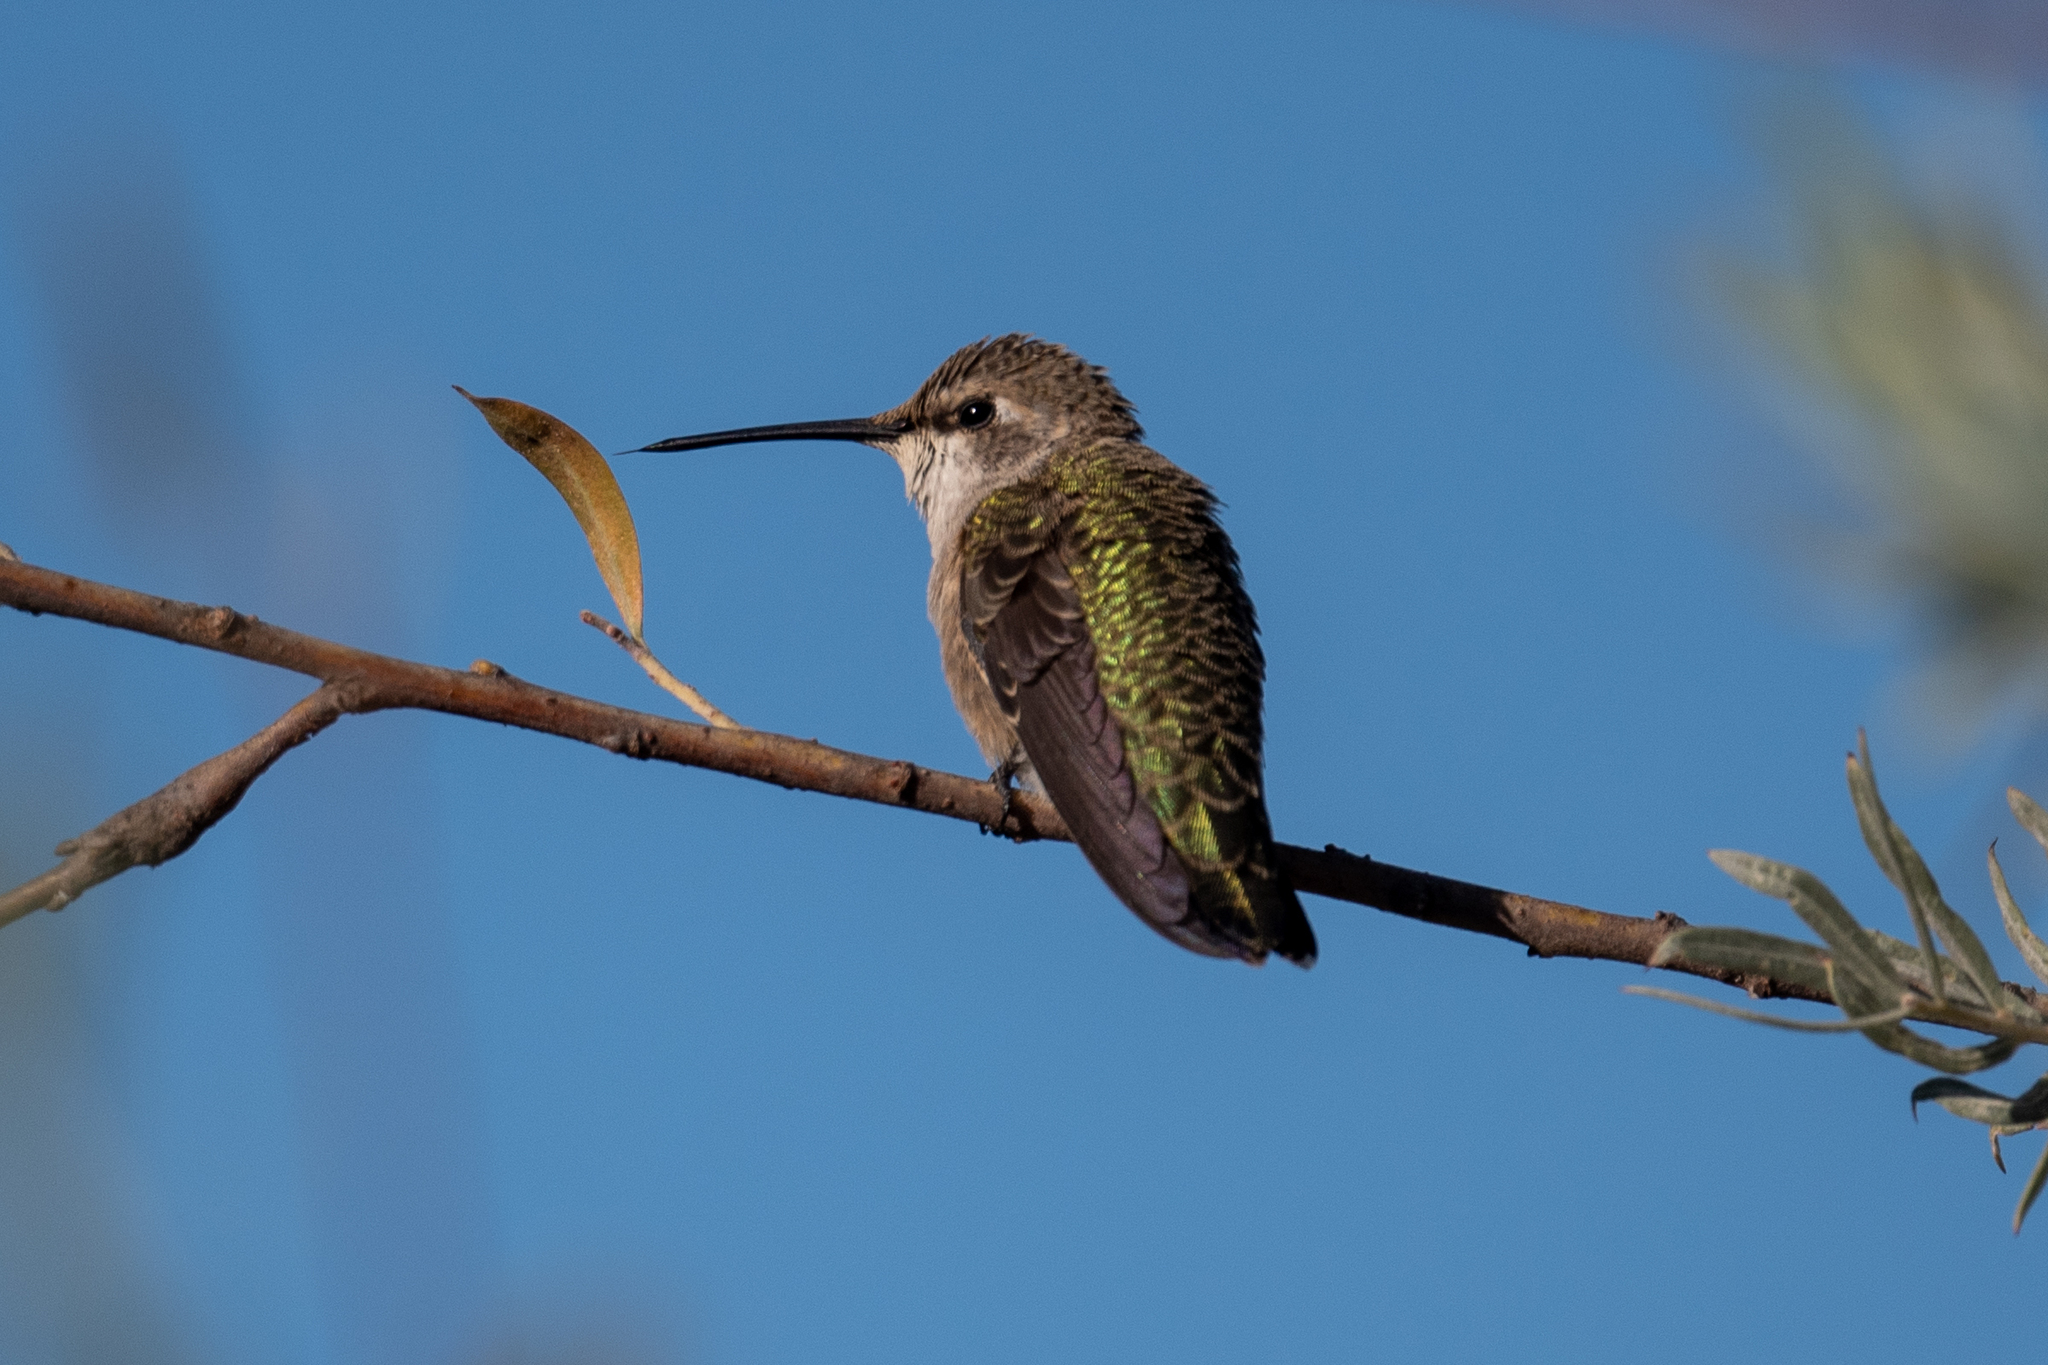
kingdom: Animalia
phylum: Chordata
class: Aves
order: Apodiformes
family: Trochilidae
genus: Archilochus
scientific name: Archilochus alexandri
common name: Black-chinned hummingbird
